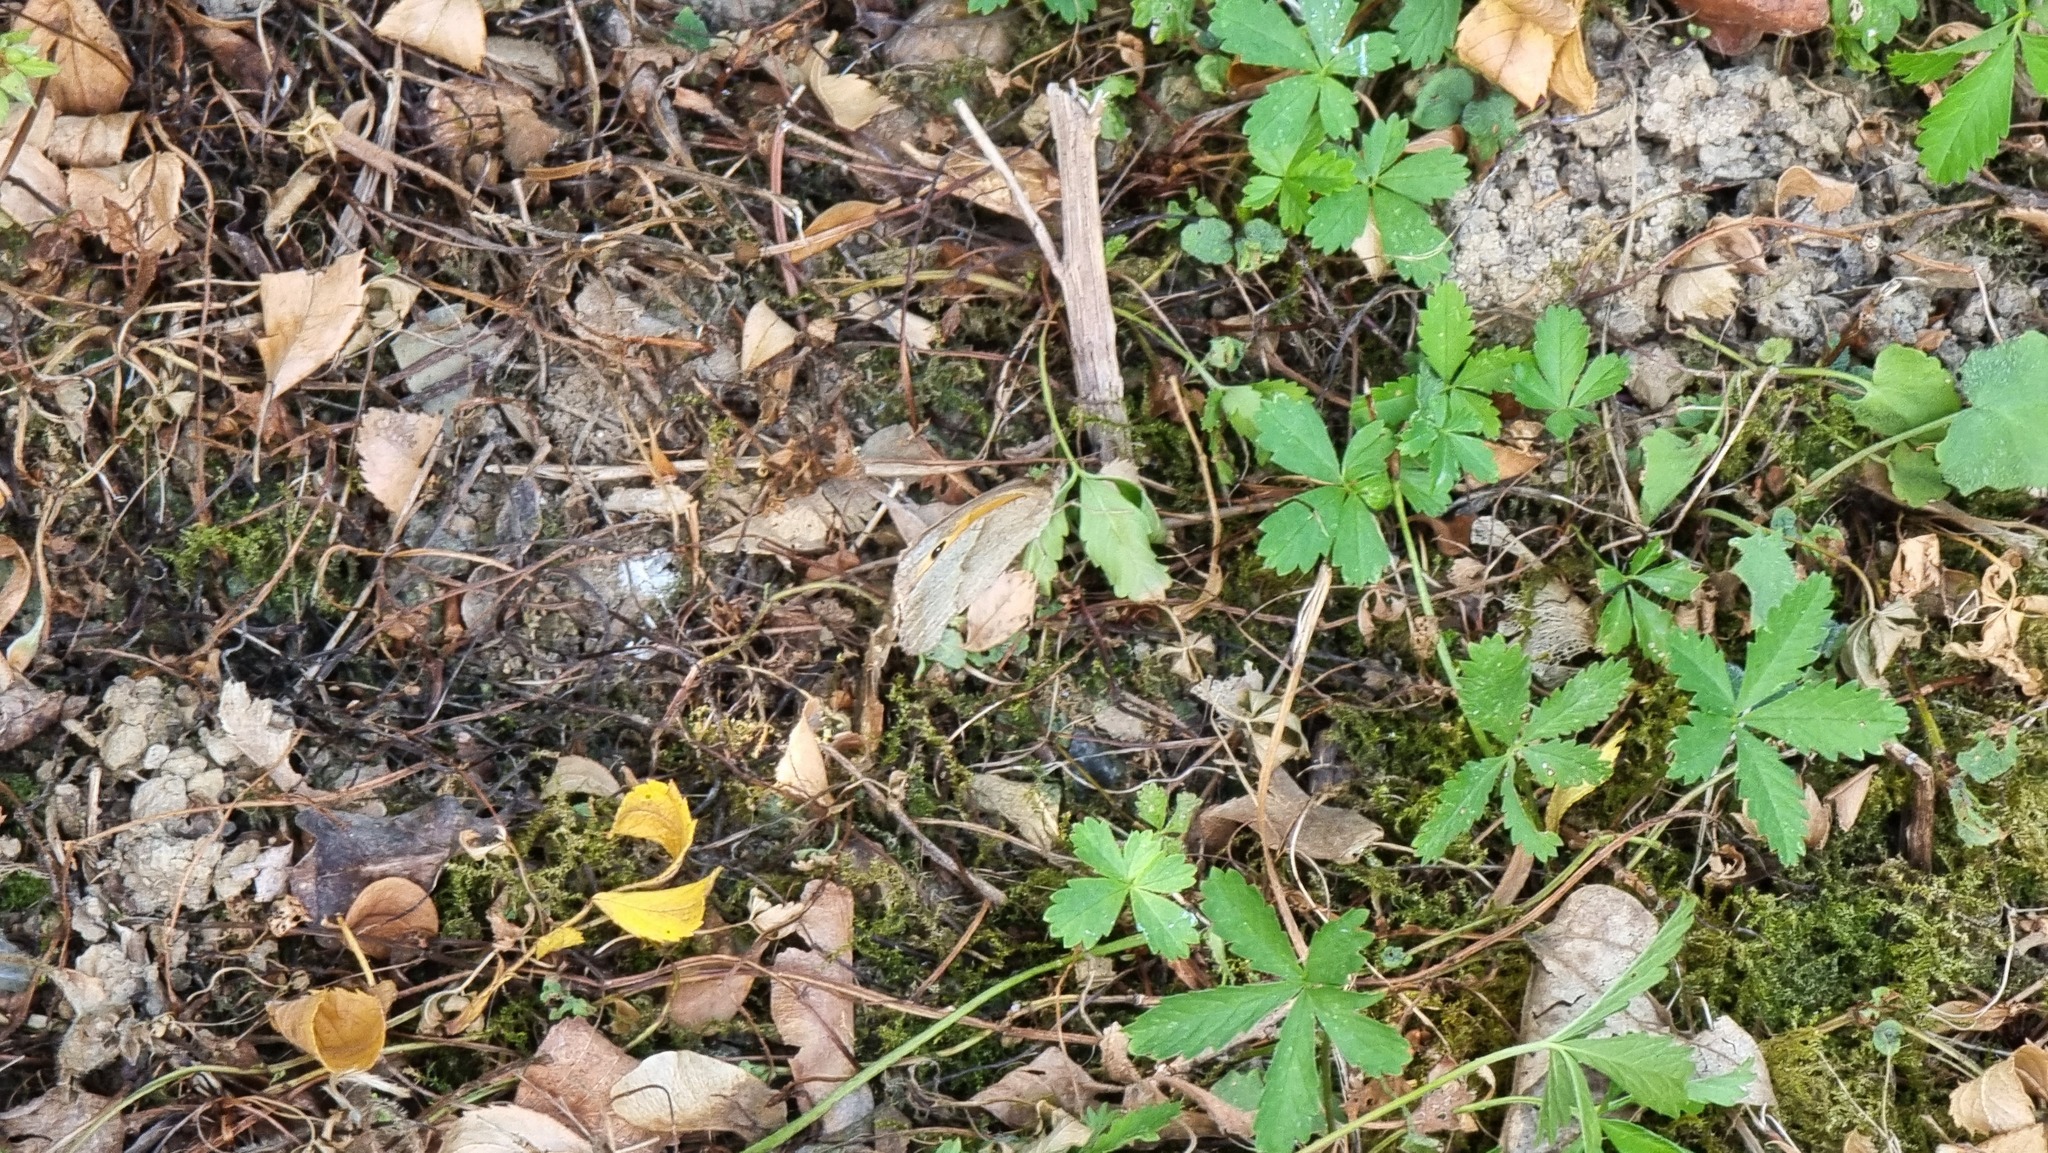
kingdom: Animalia
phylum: Arthropoda
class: Insecta
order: Lepidoptera
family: Nymphalidae
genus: Maniola
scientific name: Maniola jurtina
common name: Meadow brown
